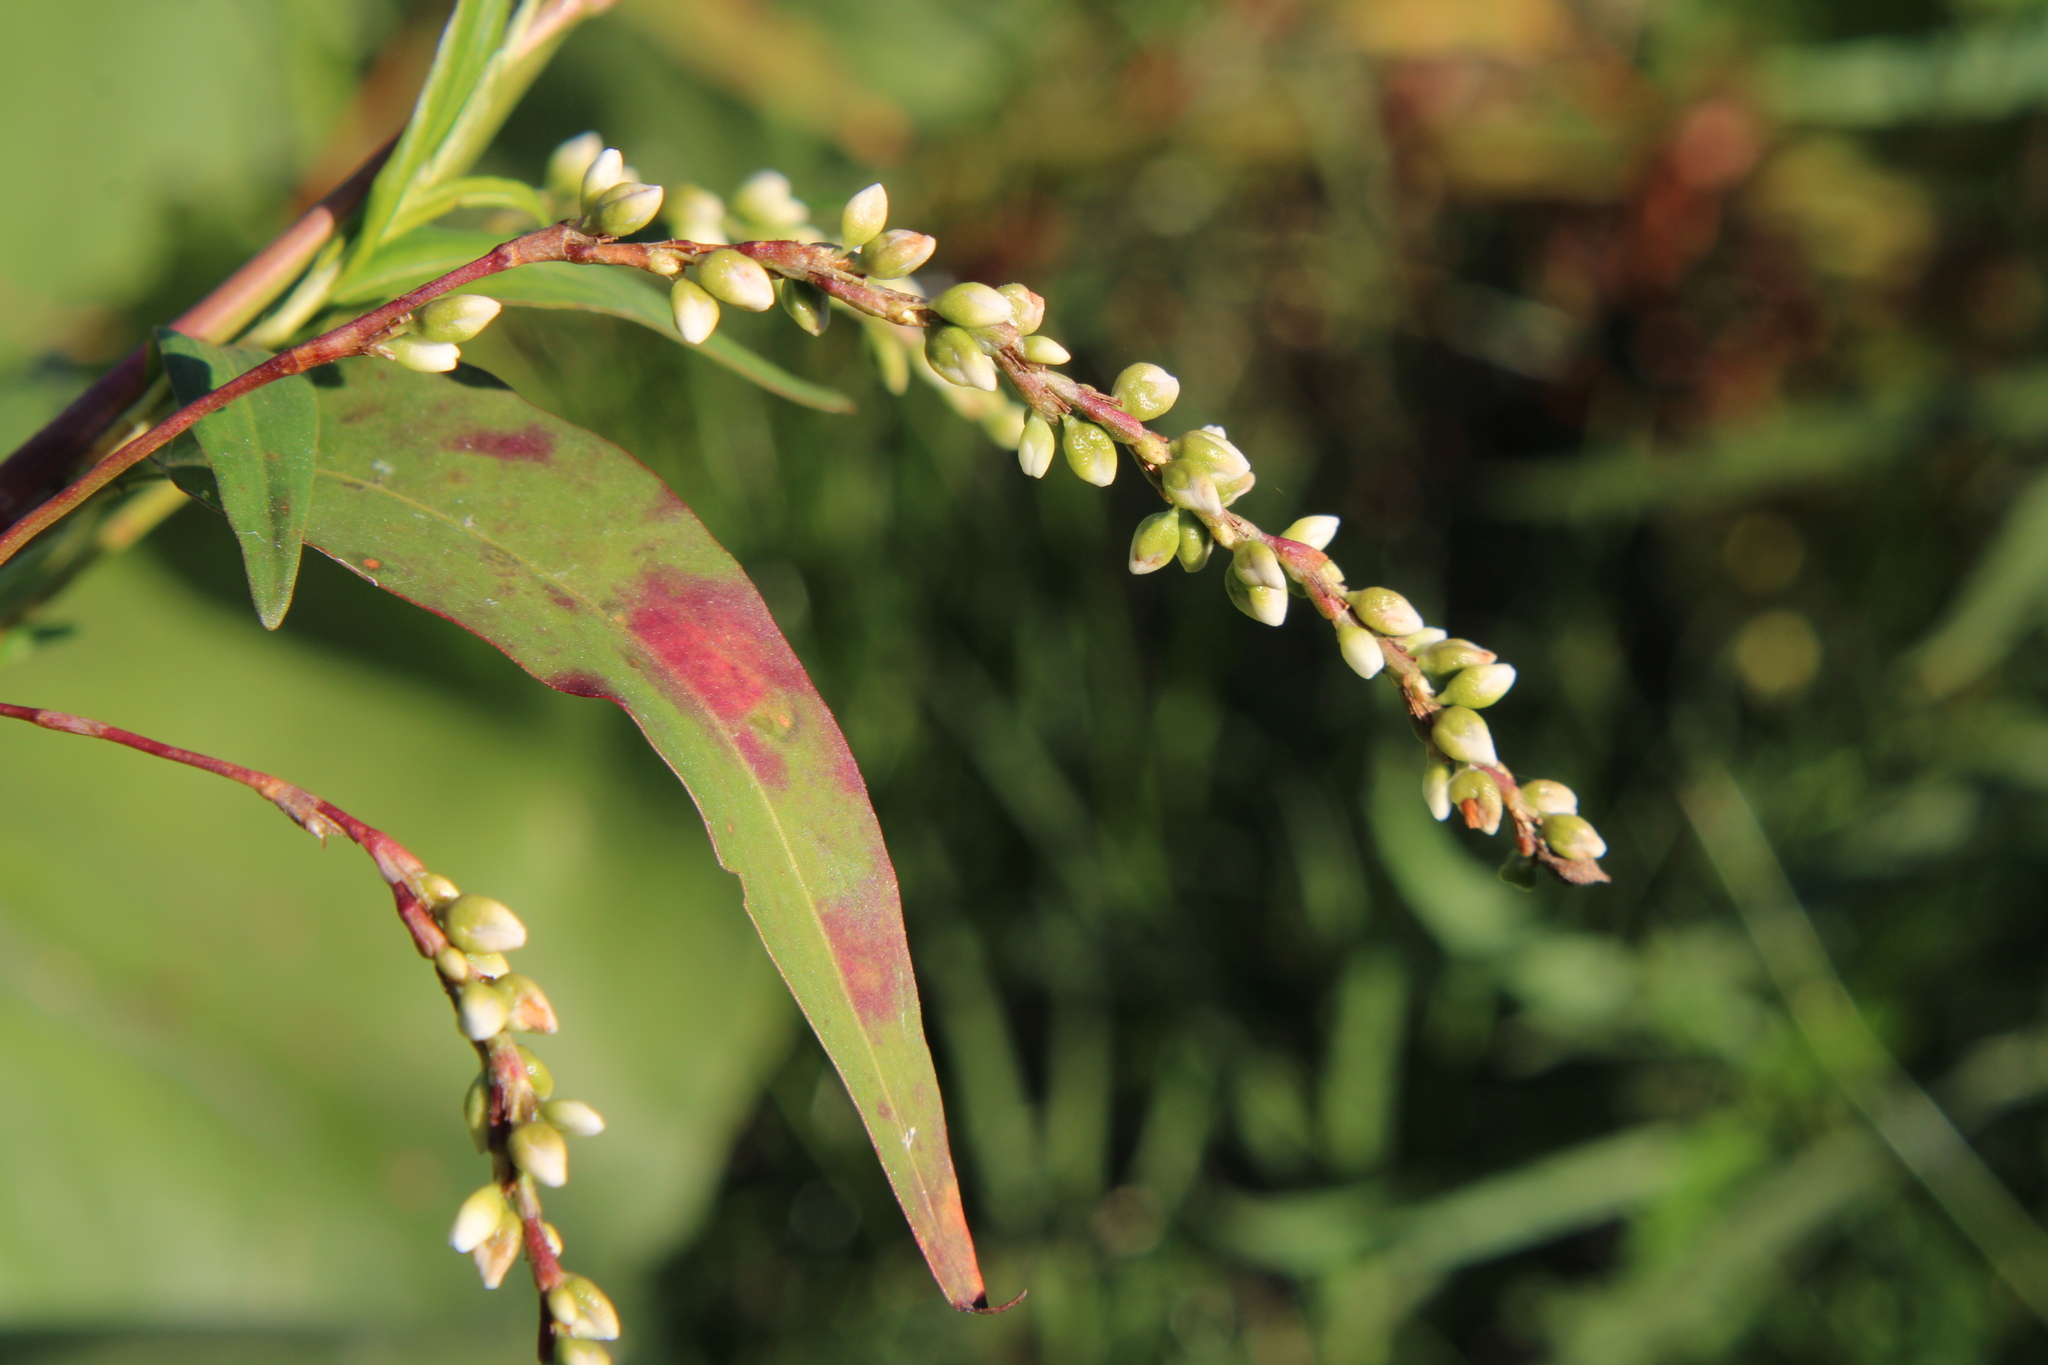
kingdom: Plantae
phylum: Tracheophyta
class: Magnoliopsida
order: Caryophyllales
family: Polygonaceae
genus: Persicaria
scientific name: Persicaria punctata
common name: Dotted smartweed
